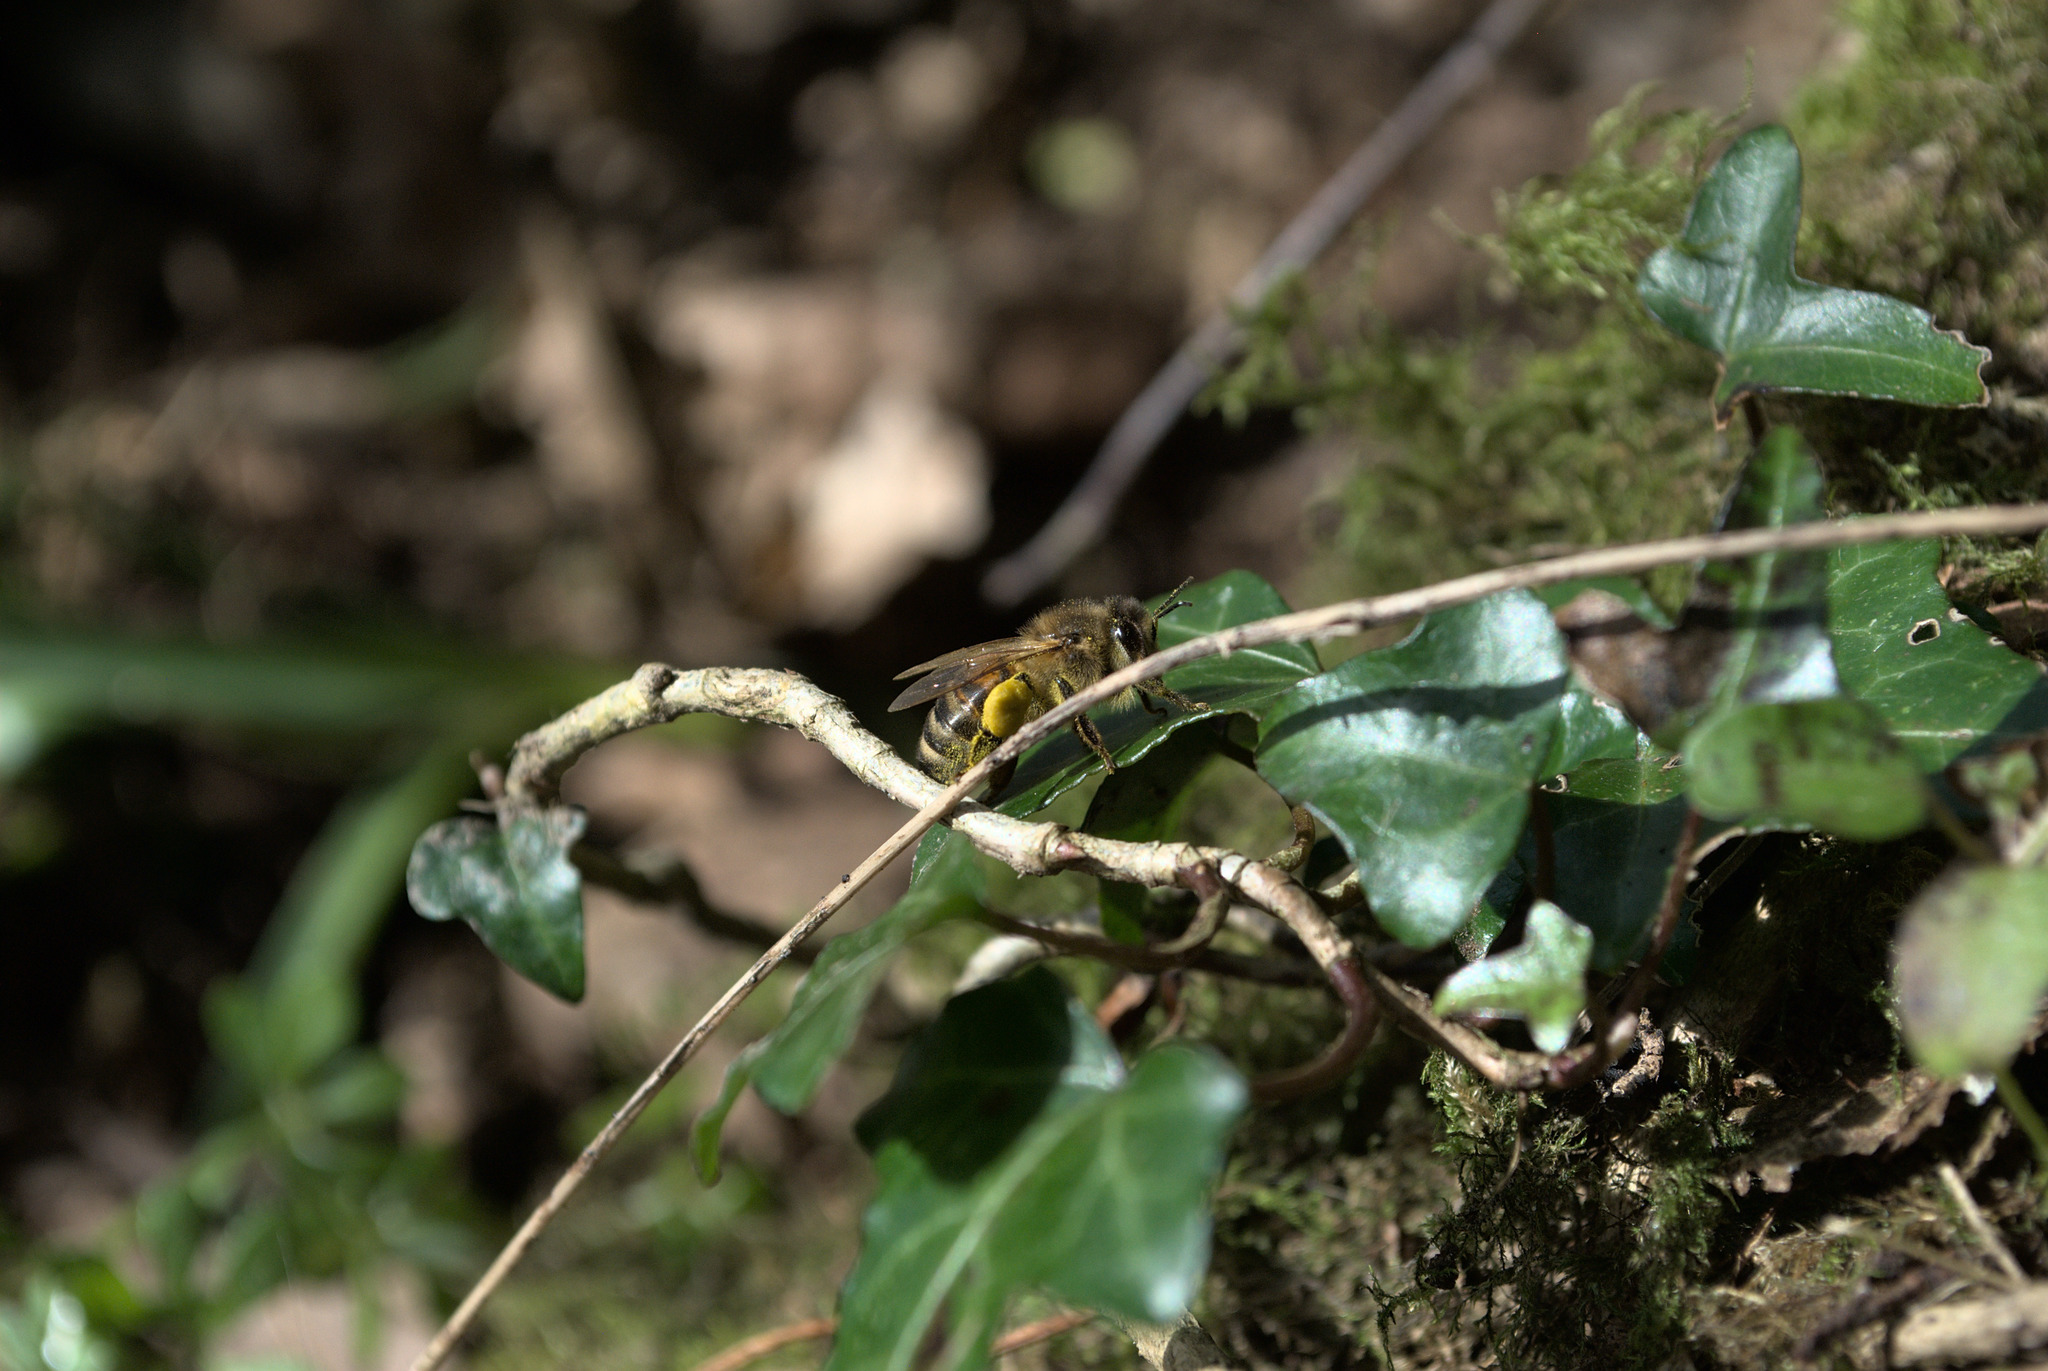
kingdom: Animalia
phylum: Arthropoda
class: Insecta
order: Hymenoptera
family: Apidae
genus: Apis
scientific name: Apis mellifera
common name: Honey bee
